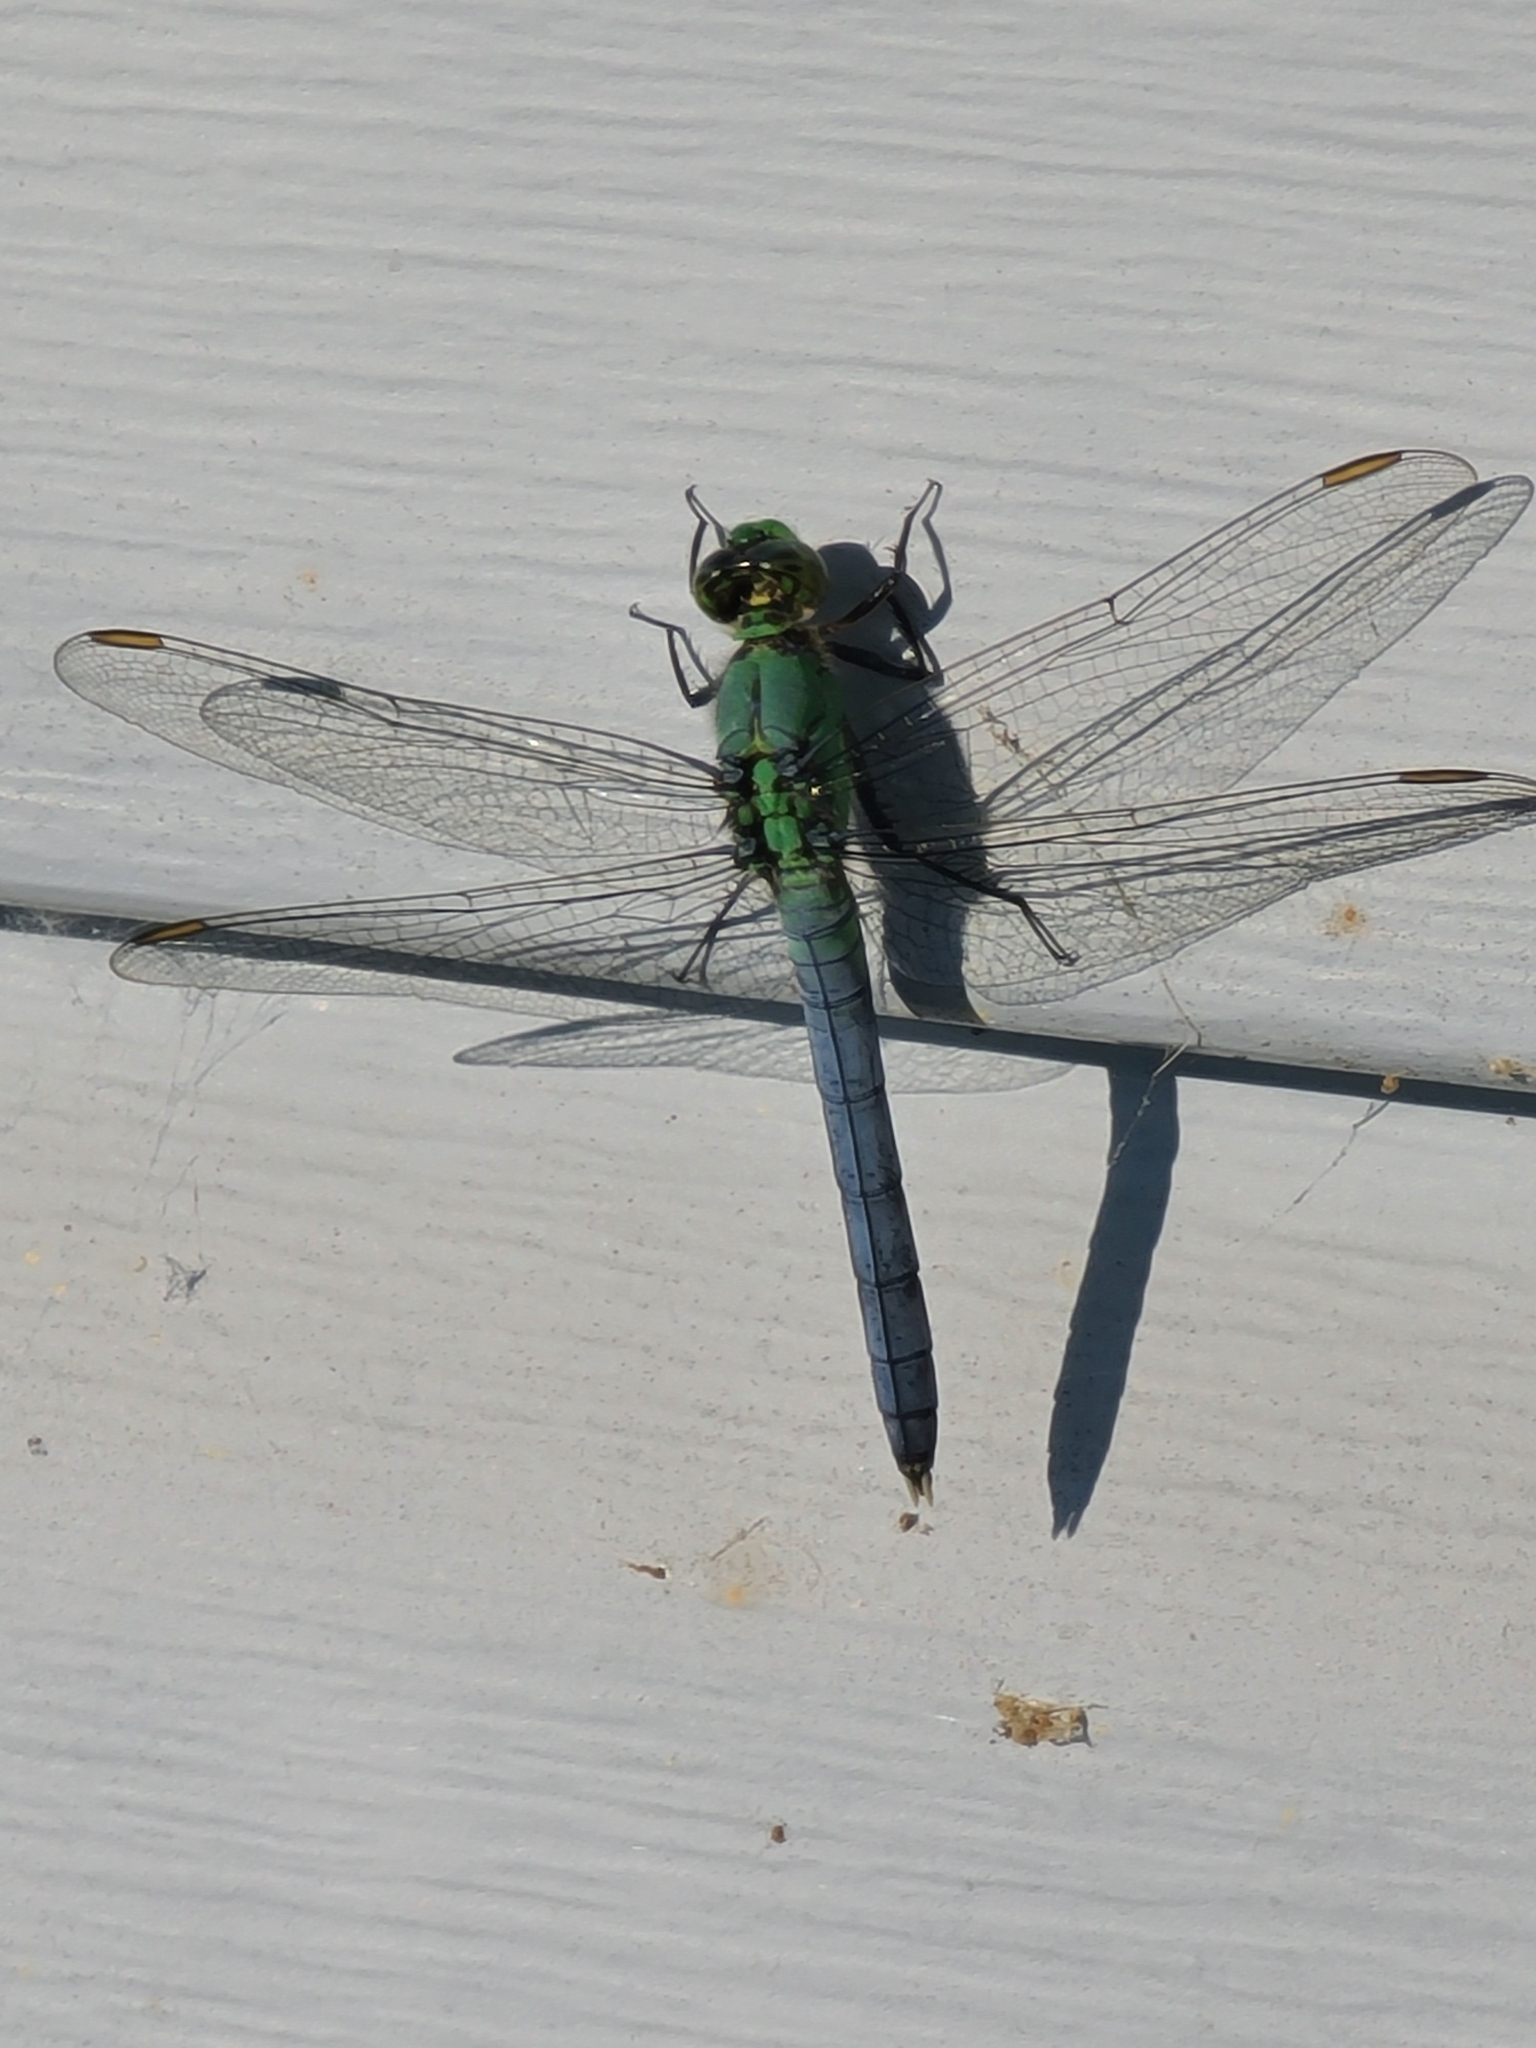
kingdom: Animalia
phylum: Arthropoda
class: Insecta
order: Odonata
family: Libellulidae
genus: Erythemis
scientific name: Erythemis simplicicollis
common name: Eastern pondhawk
